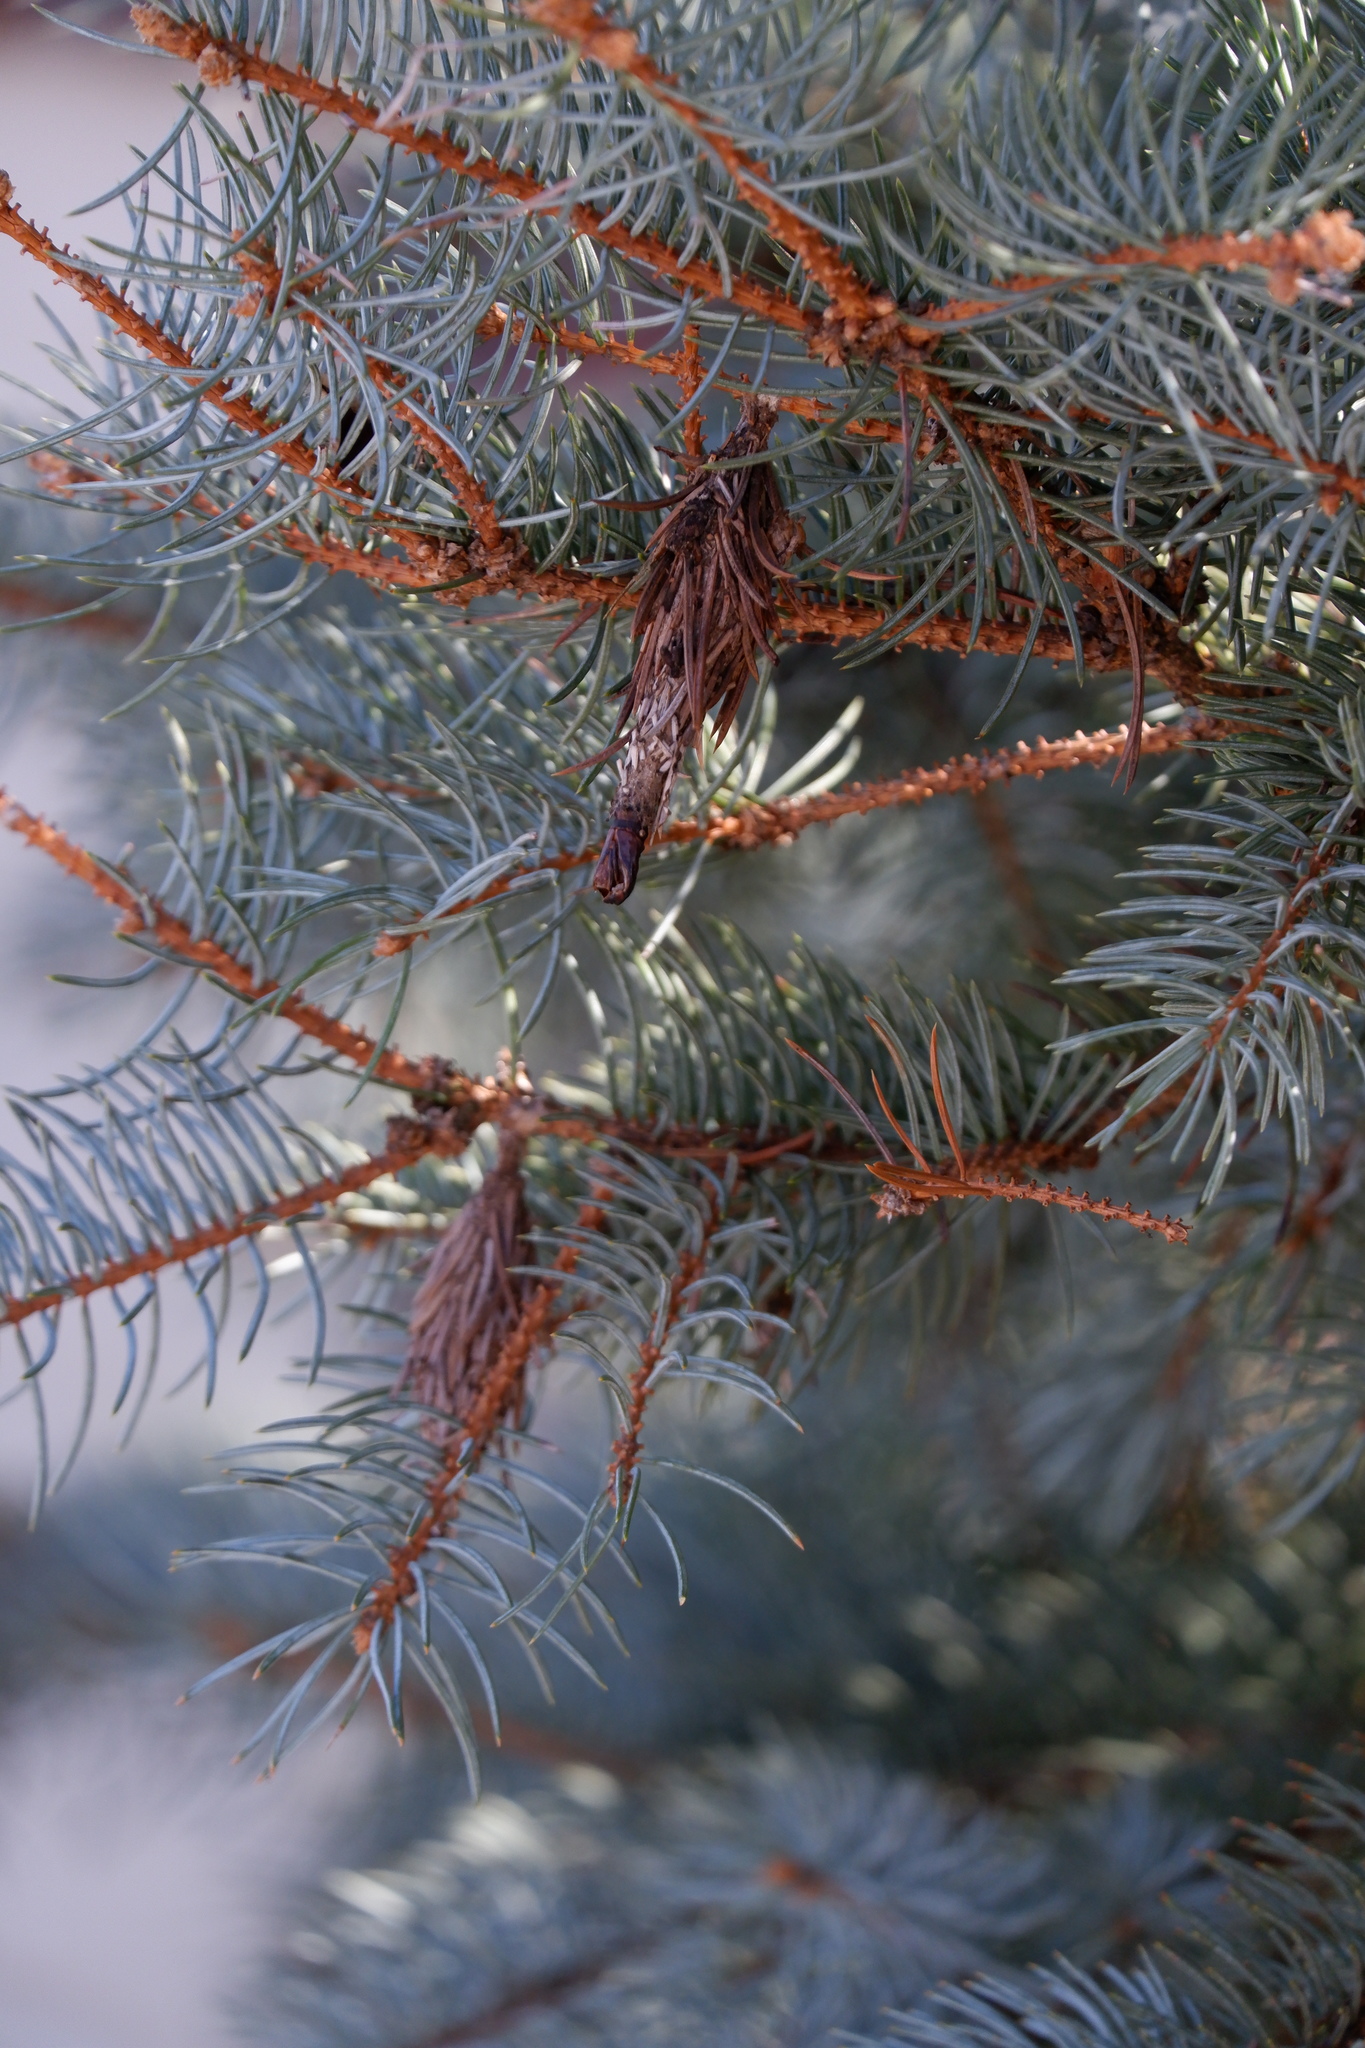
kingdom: Animalia
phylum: Arthropoda
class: Insecta
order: Lepidoptera
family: Psychidae
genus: Thyridopteryx
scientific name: Thyridopteryx ephemeraeformis
